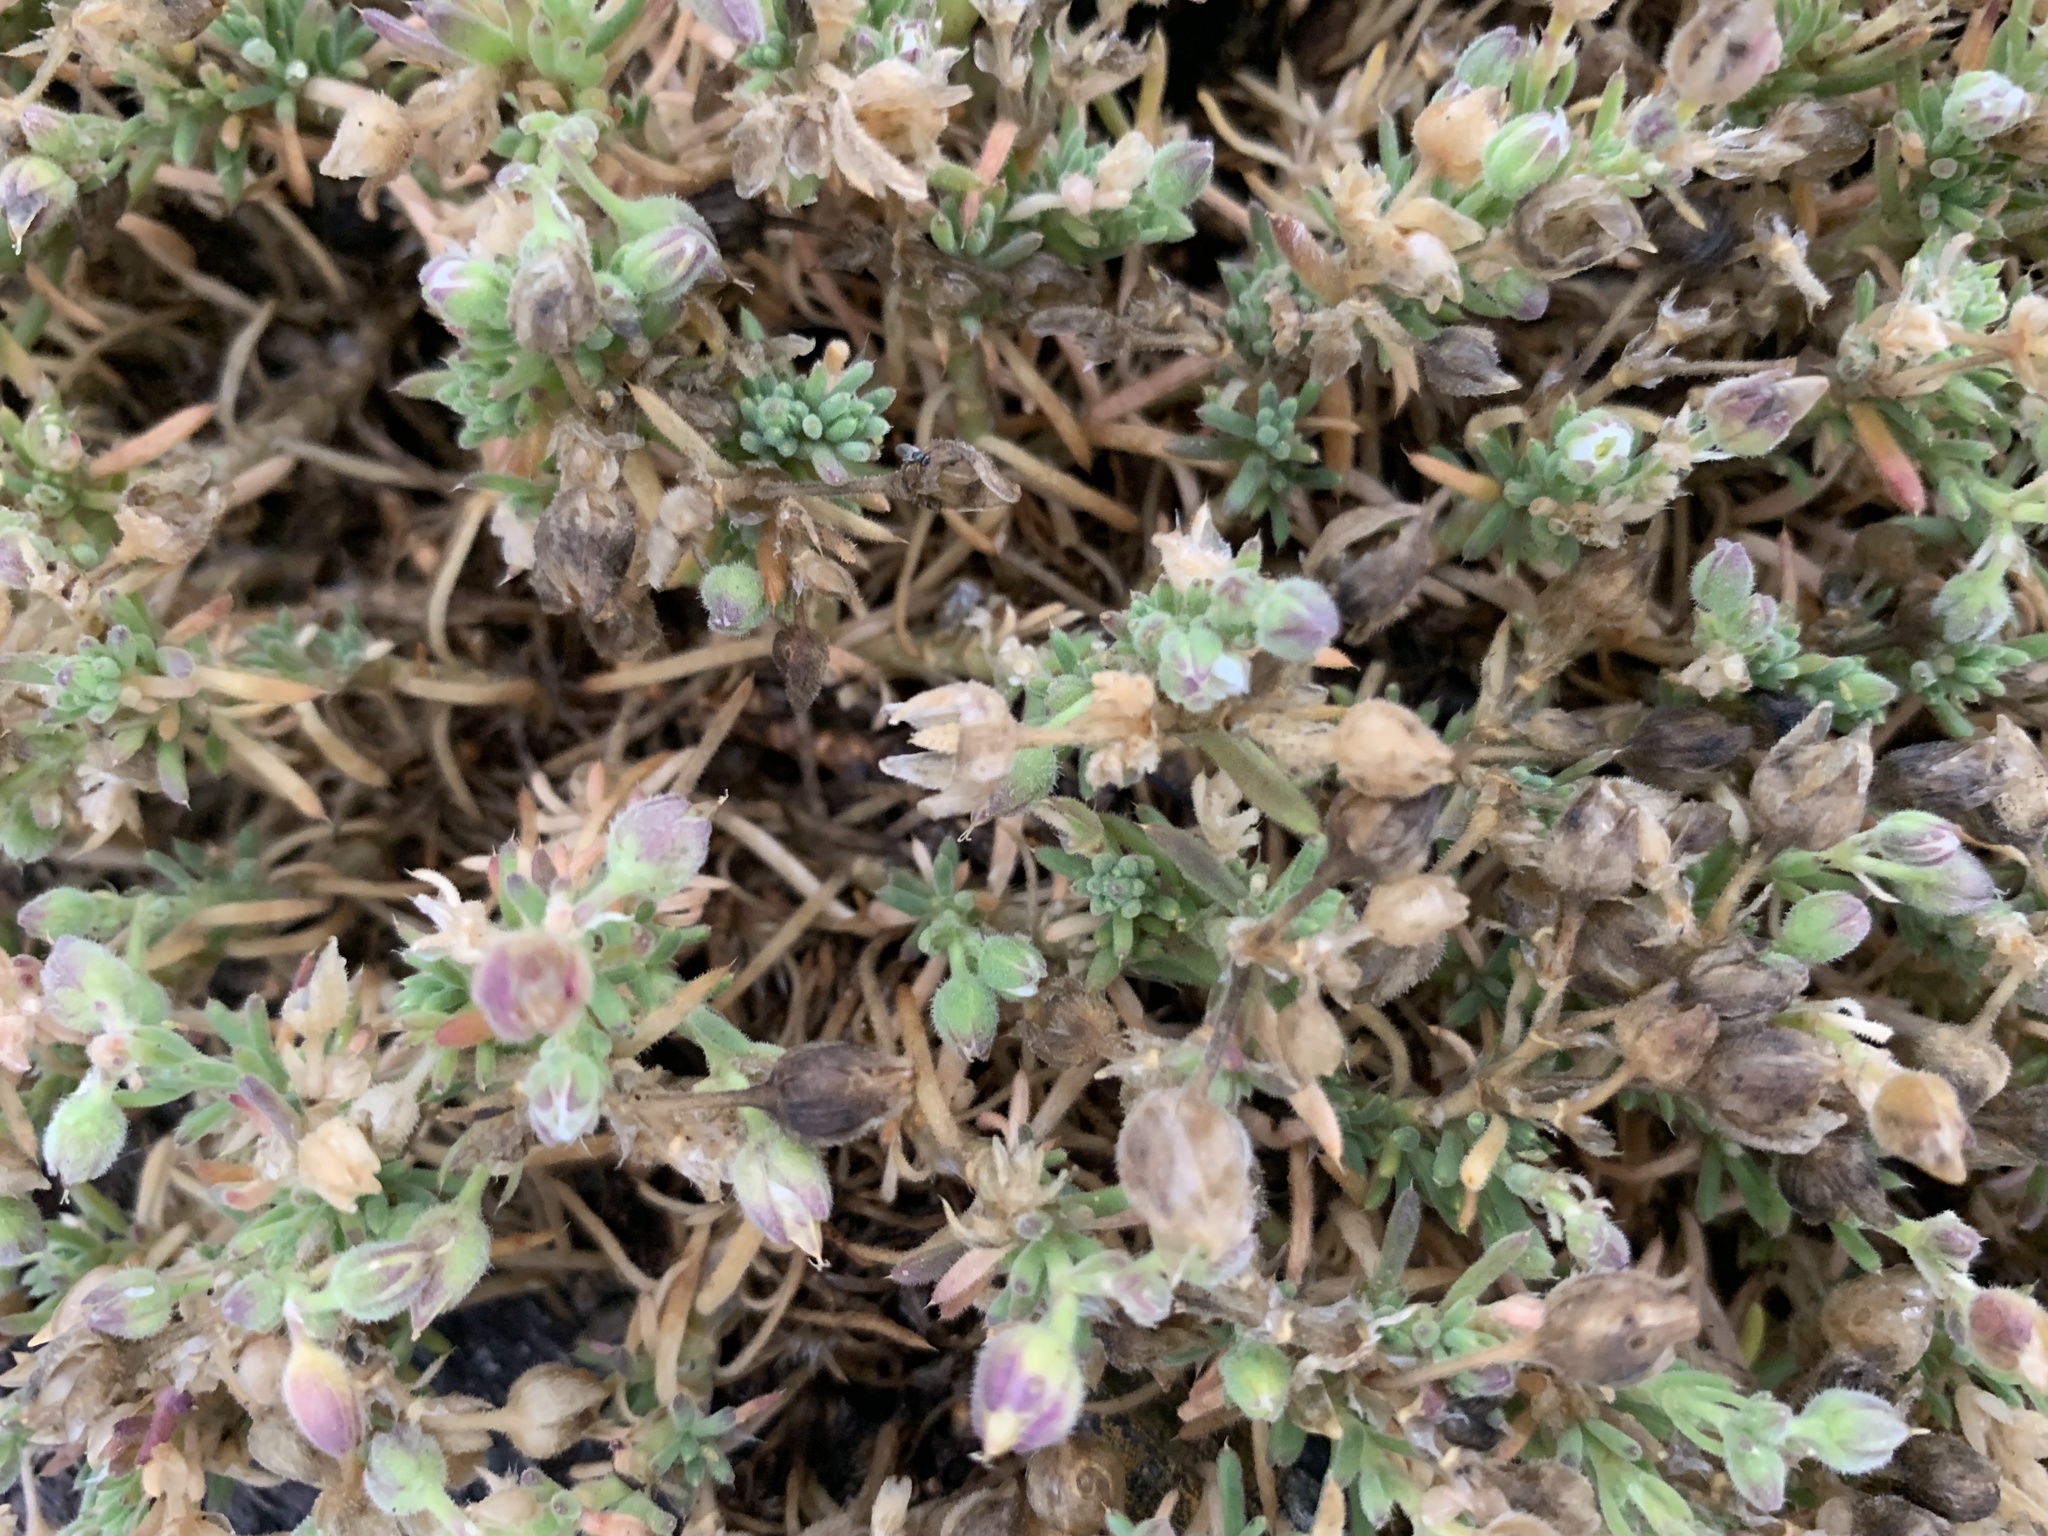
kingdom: Plantae
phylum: Tracheophyta
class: Magnoliopsida
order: Caryophyllales
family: Caryophyllaceae
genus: Spergularia
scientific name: Spergularia
